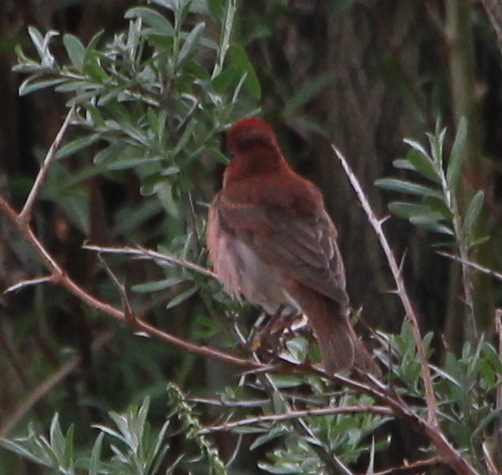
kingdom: Animalia
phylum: Chordata
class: Aves
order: Passeriformes
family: Fringillidae
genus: Carpodacus
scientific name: Carpodacus erythrinus
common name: Common rosefinch
